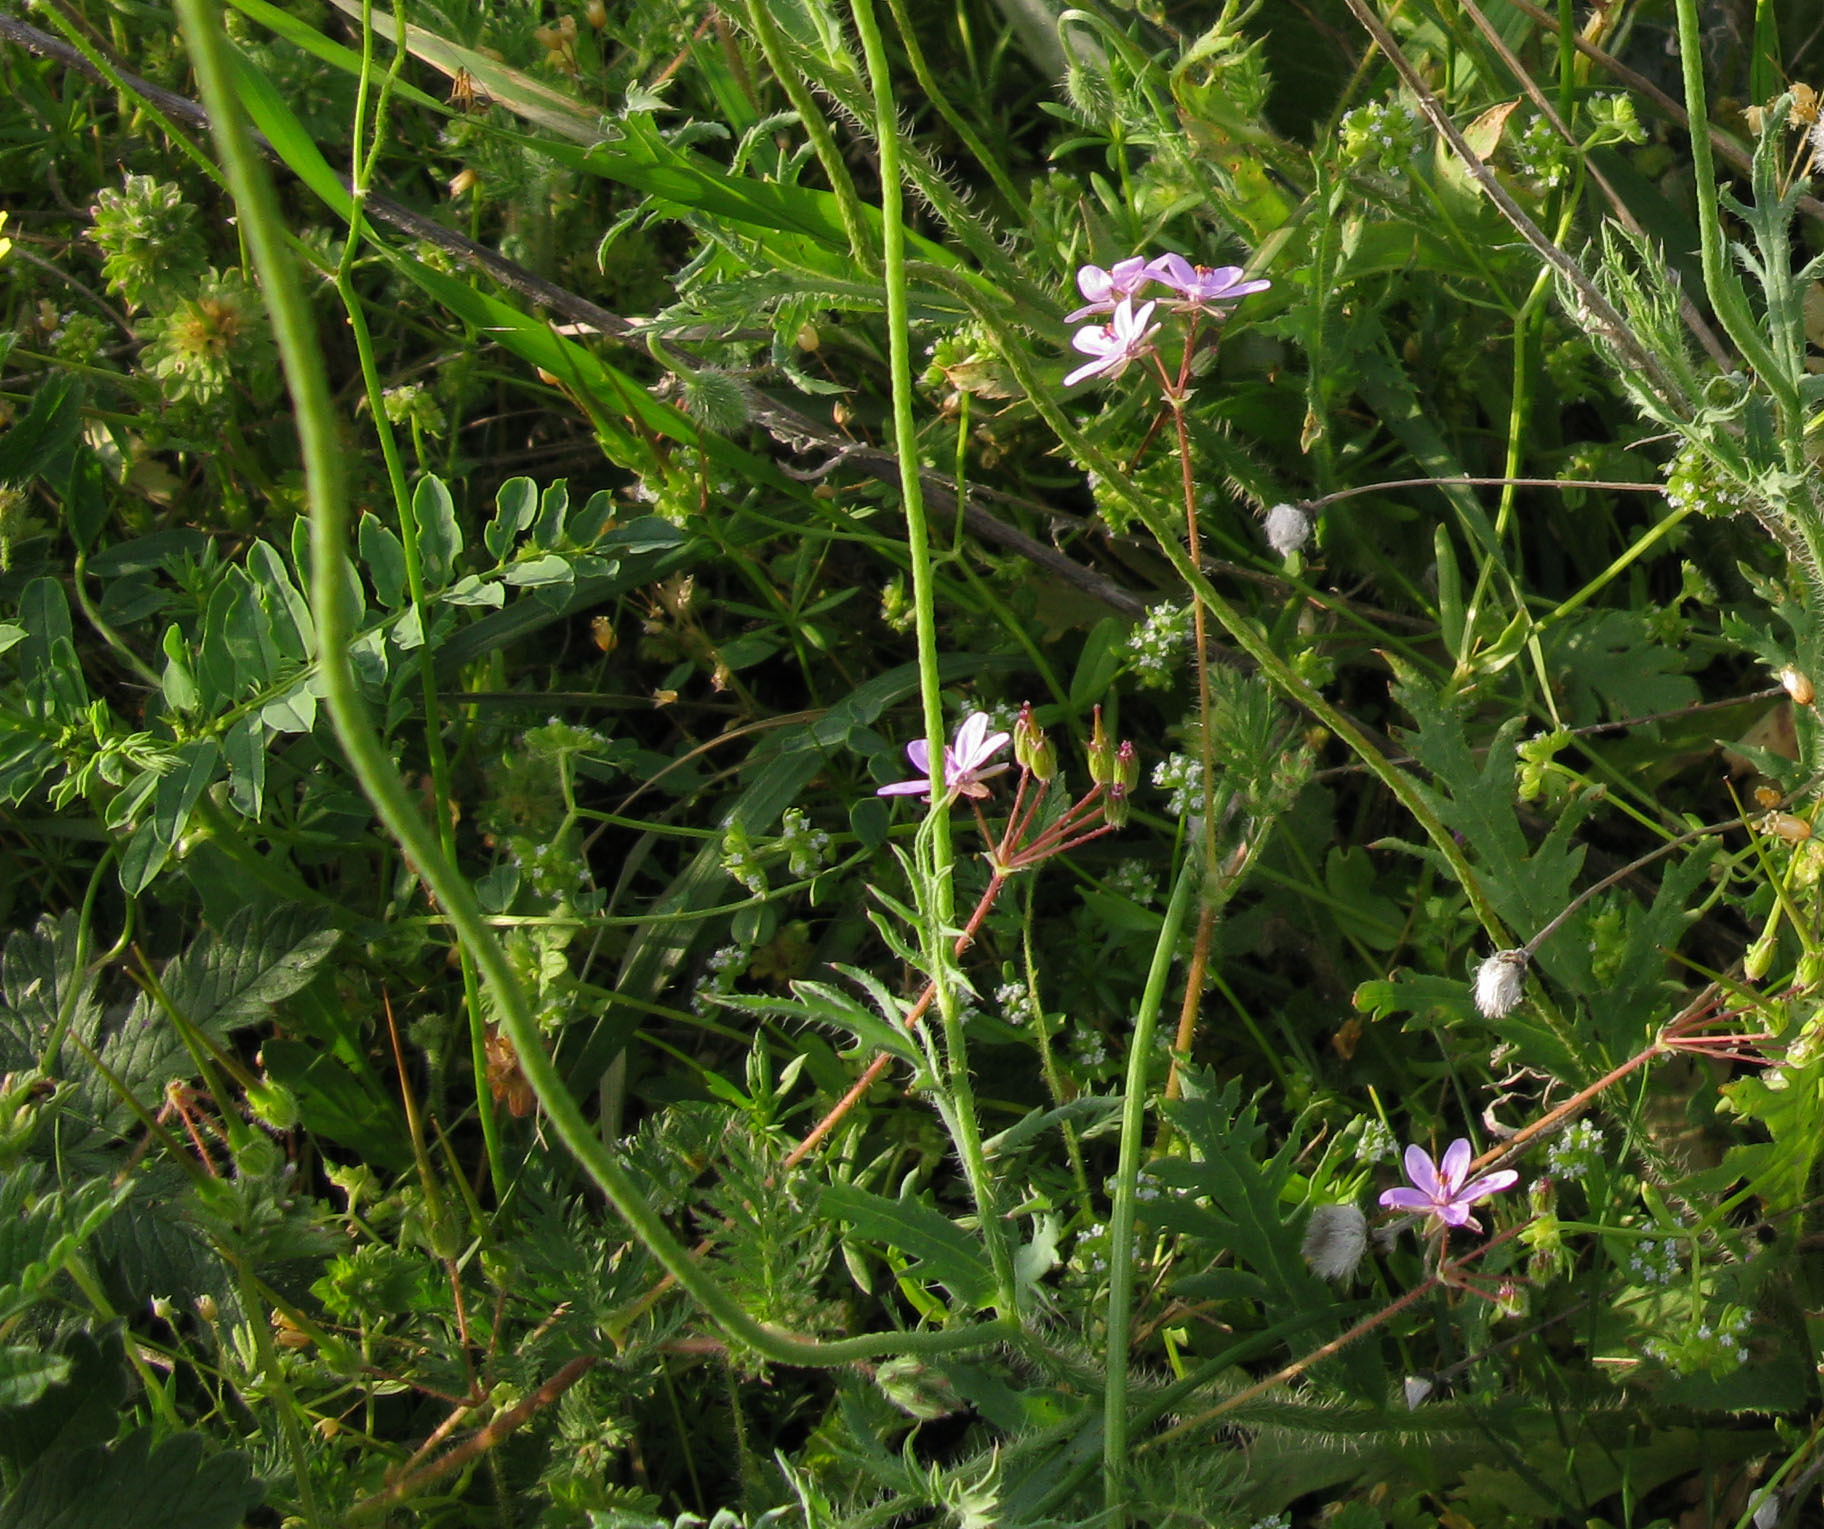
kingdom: Plantae
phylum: Tracheophyta
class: Magnoliopsida
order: Geraniales
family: Geraniaceae
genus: Erodium
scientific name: Erodium cicutarium
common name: Common stork's-bill
